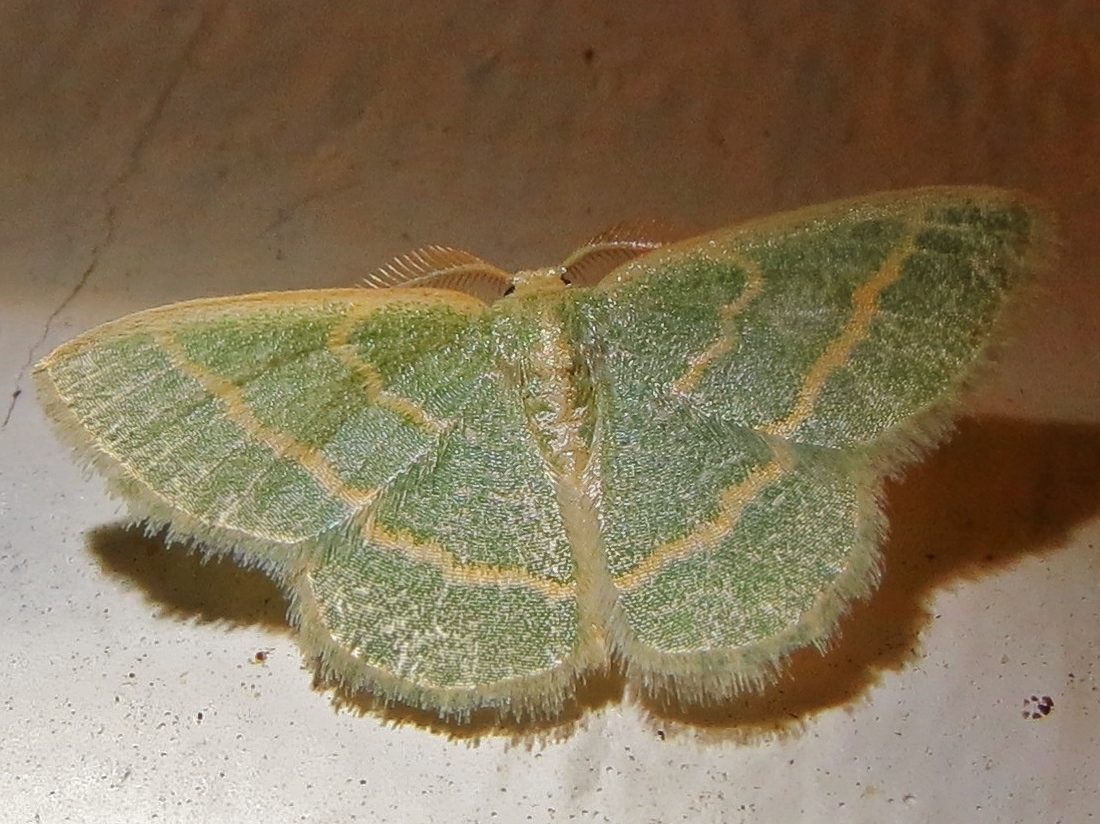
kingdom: Animalia
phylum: Arthropoda
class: Insecta
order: Lepidoptera
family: Geometridae
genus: Chlorochlamys
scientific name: Chlorochlamys chloroleucaria
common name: Blackberry looper
